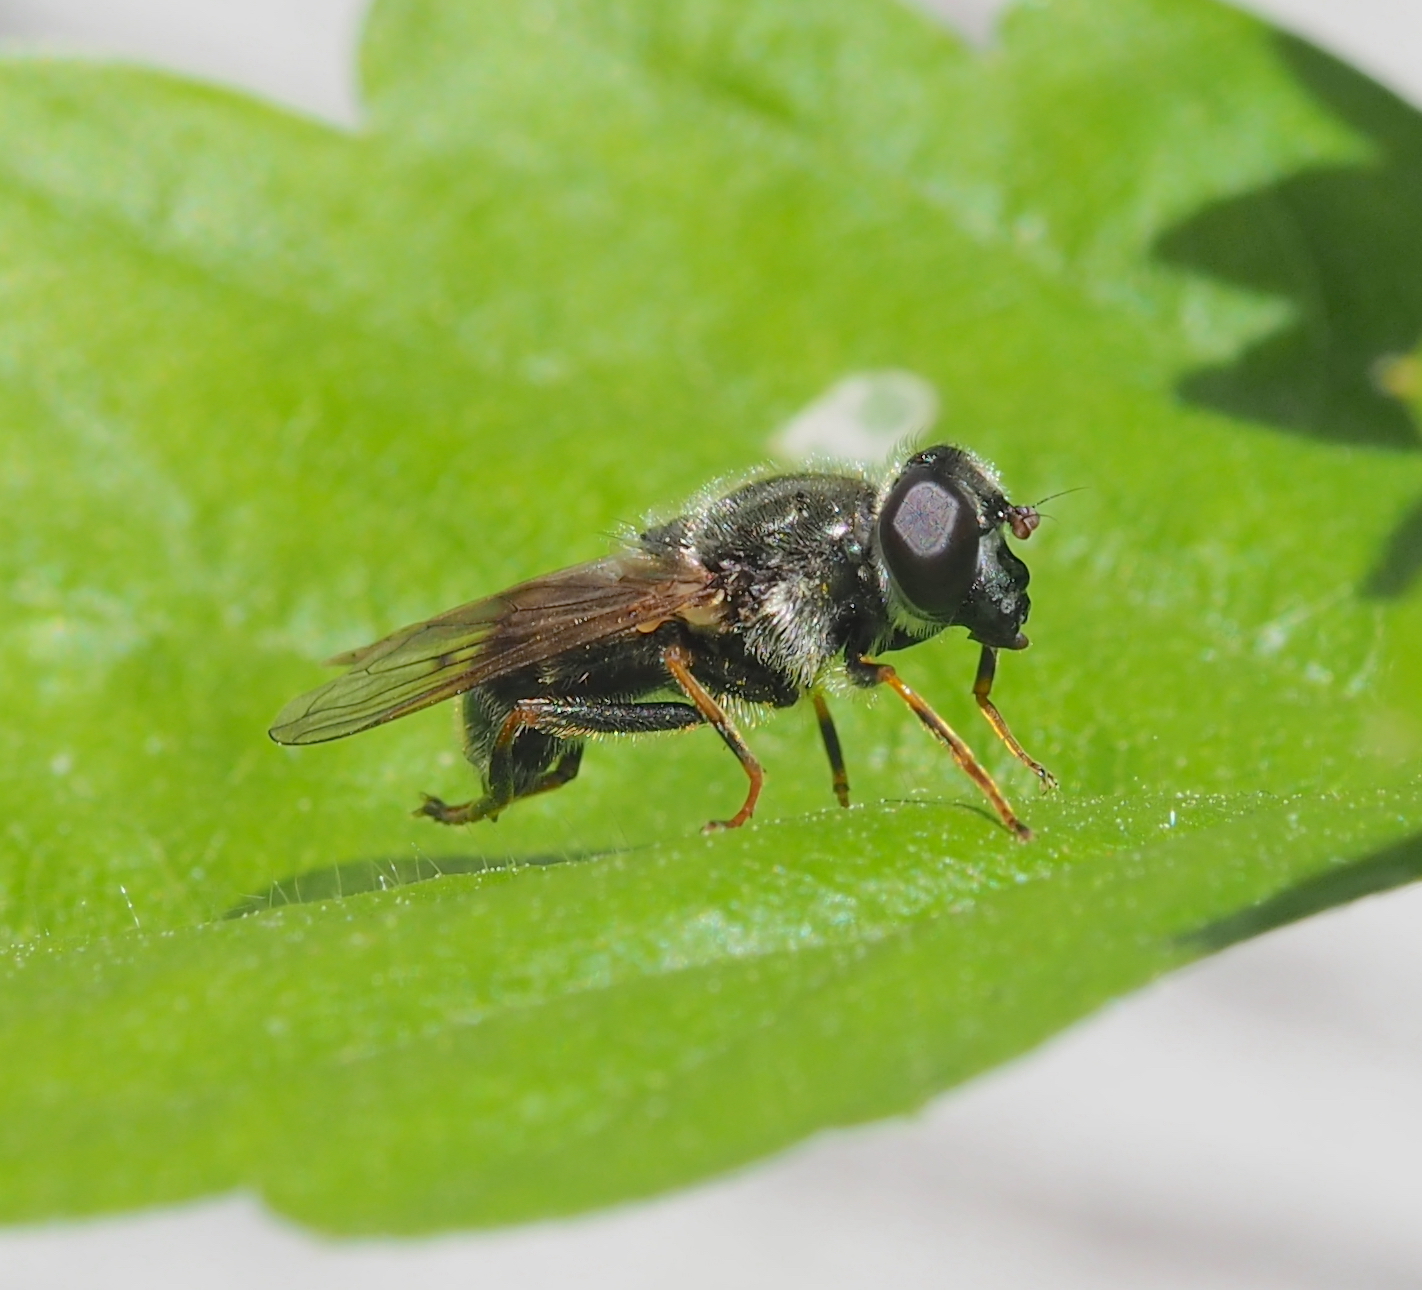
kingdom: Animalia
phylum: Arthropoda
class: Insecta
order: Diptera
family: Syrphidae
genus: Cheilosia
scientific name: Cheilosia caerulescens
